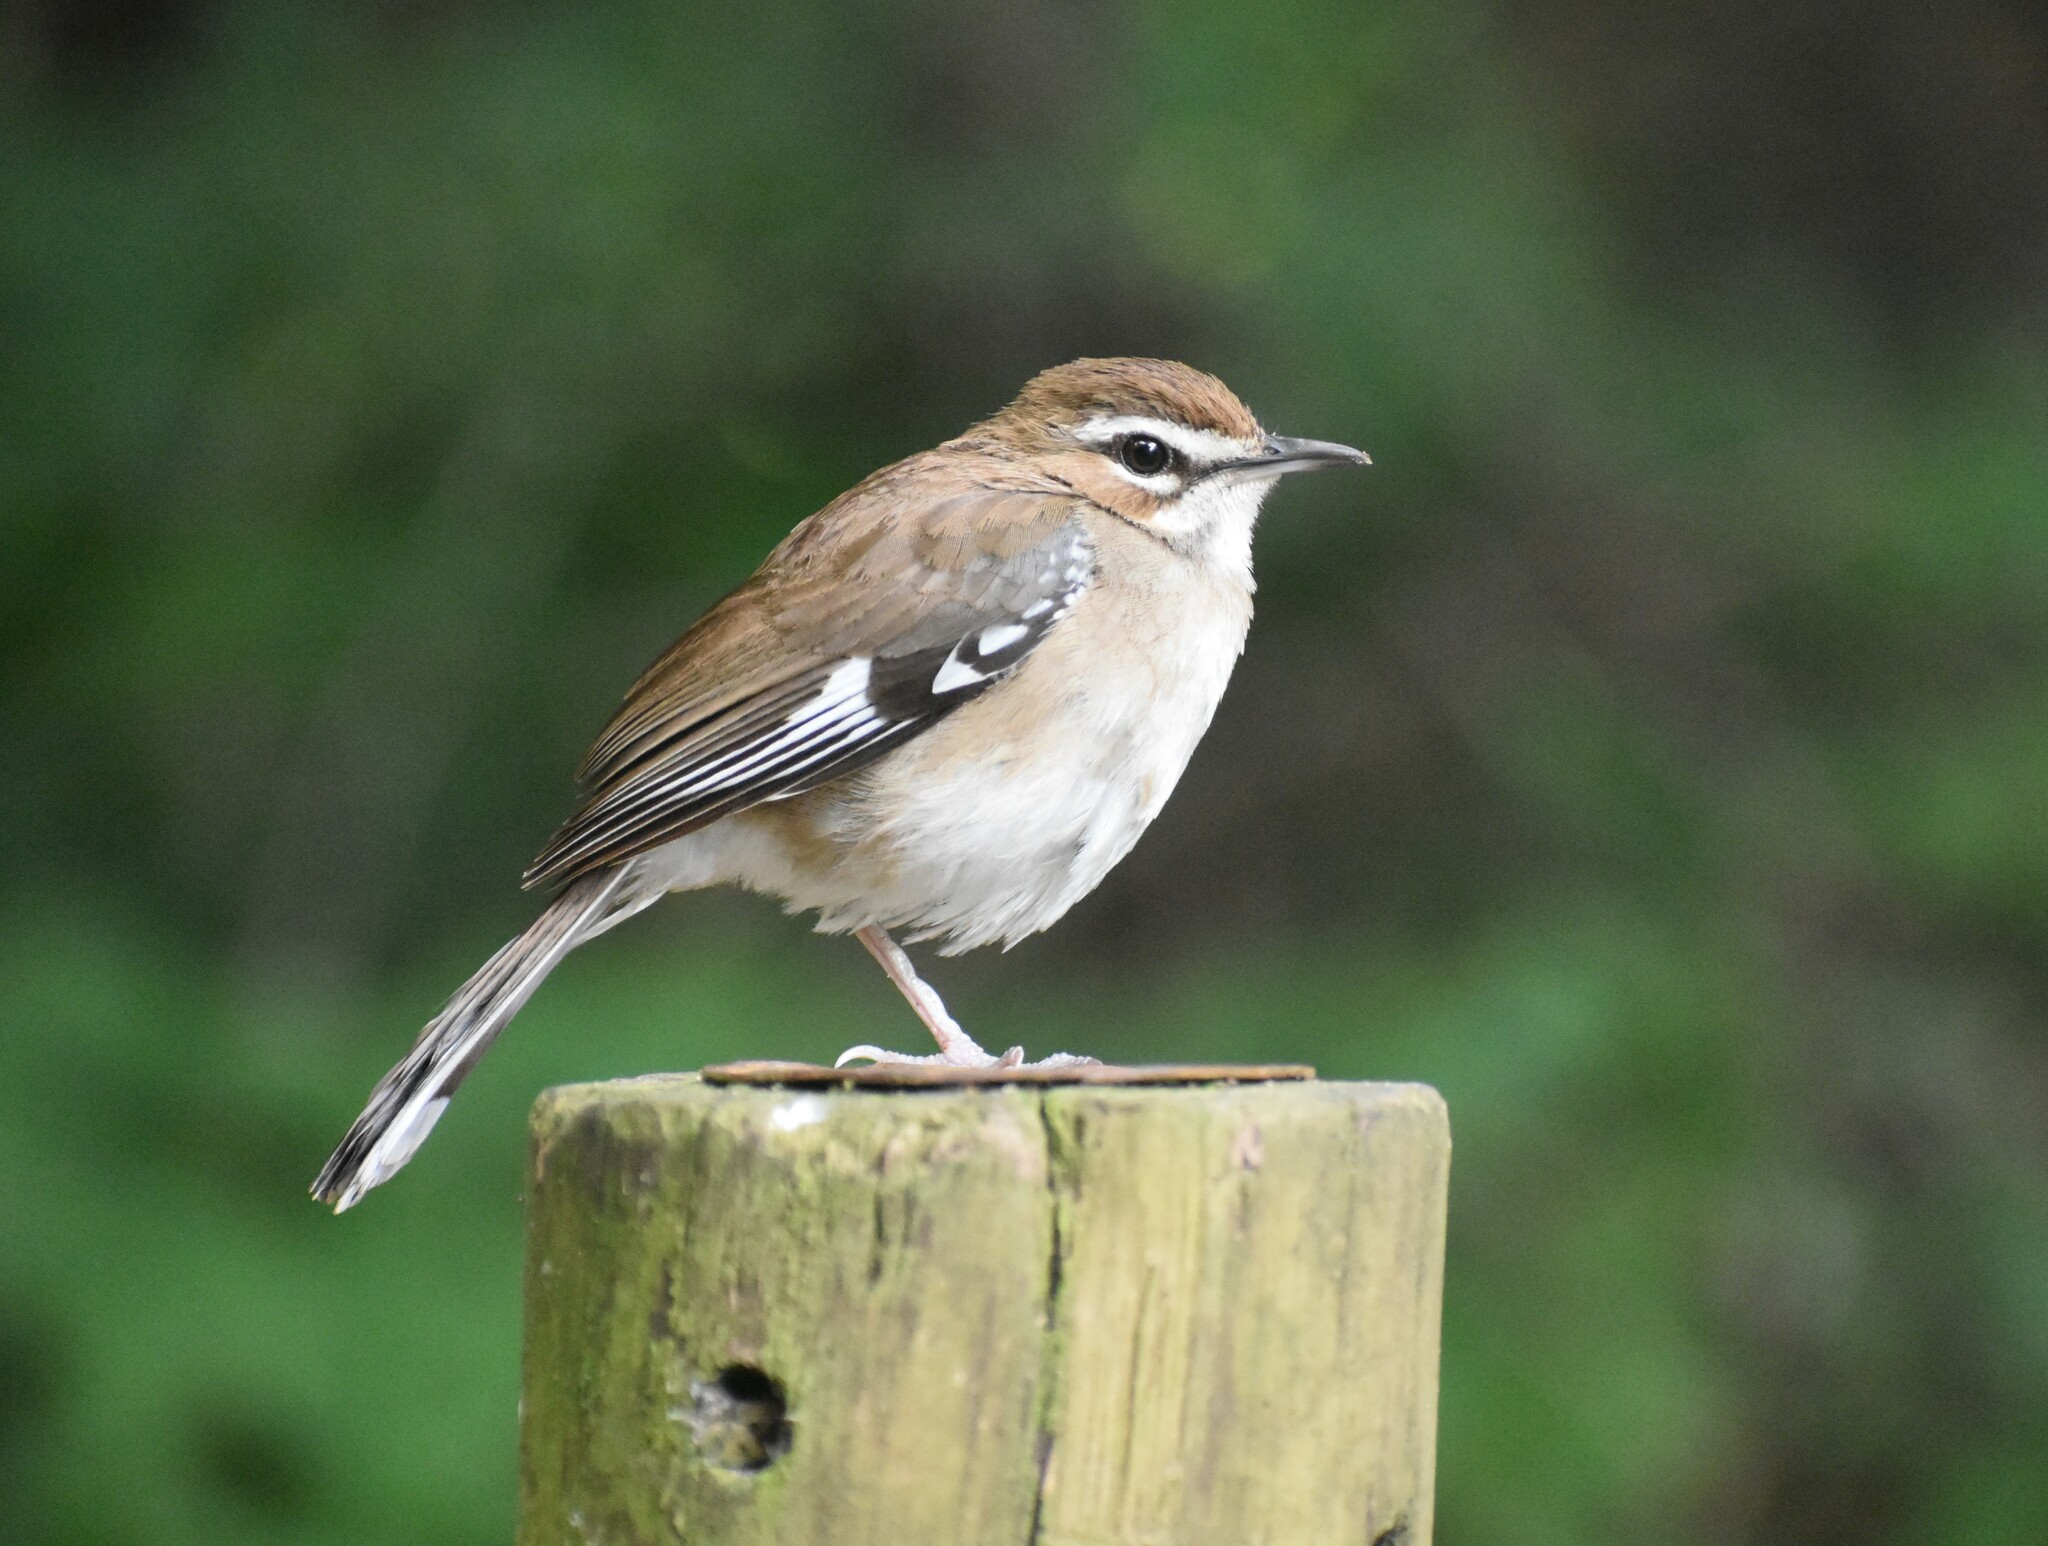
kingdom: Animalia
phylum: Chordata
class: Aves
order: Passeriformes
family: Muscicapidae
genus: Erythropygia
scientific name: Erythropygia signata
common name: Brown scrub robin
